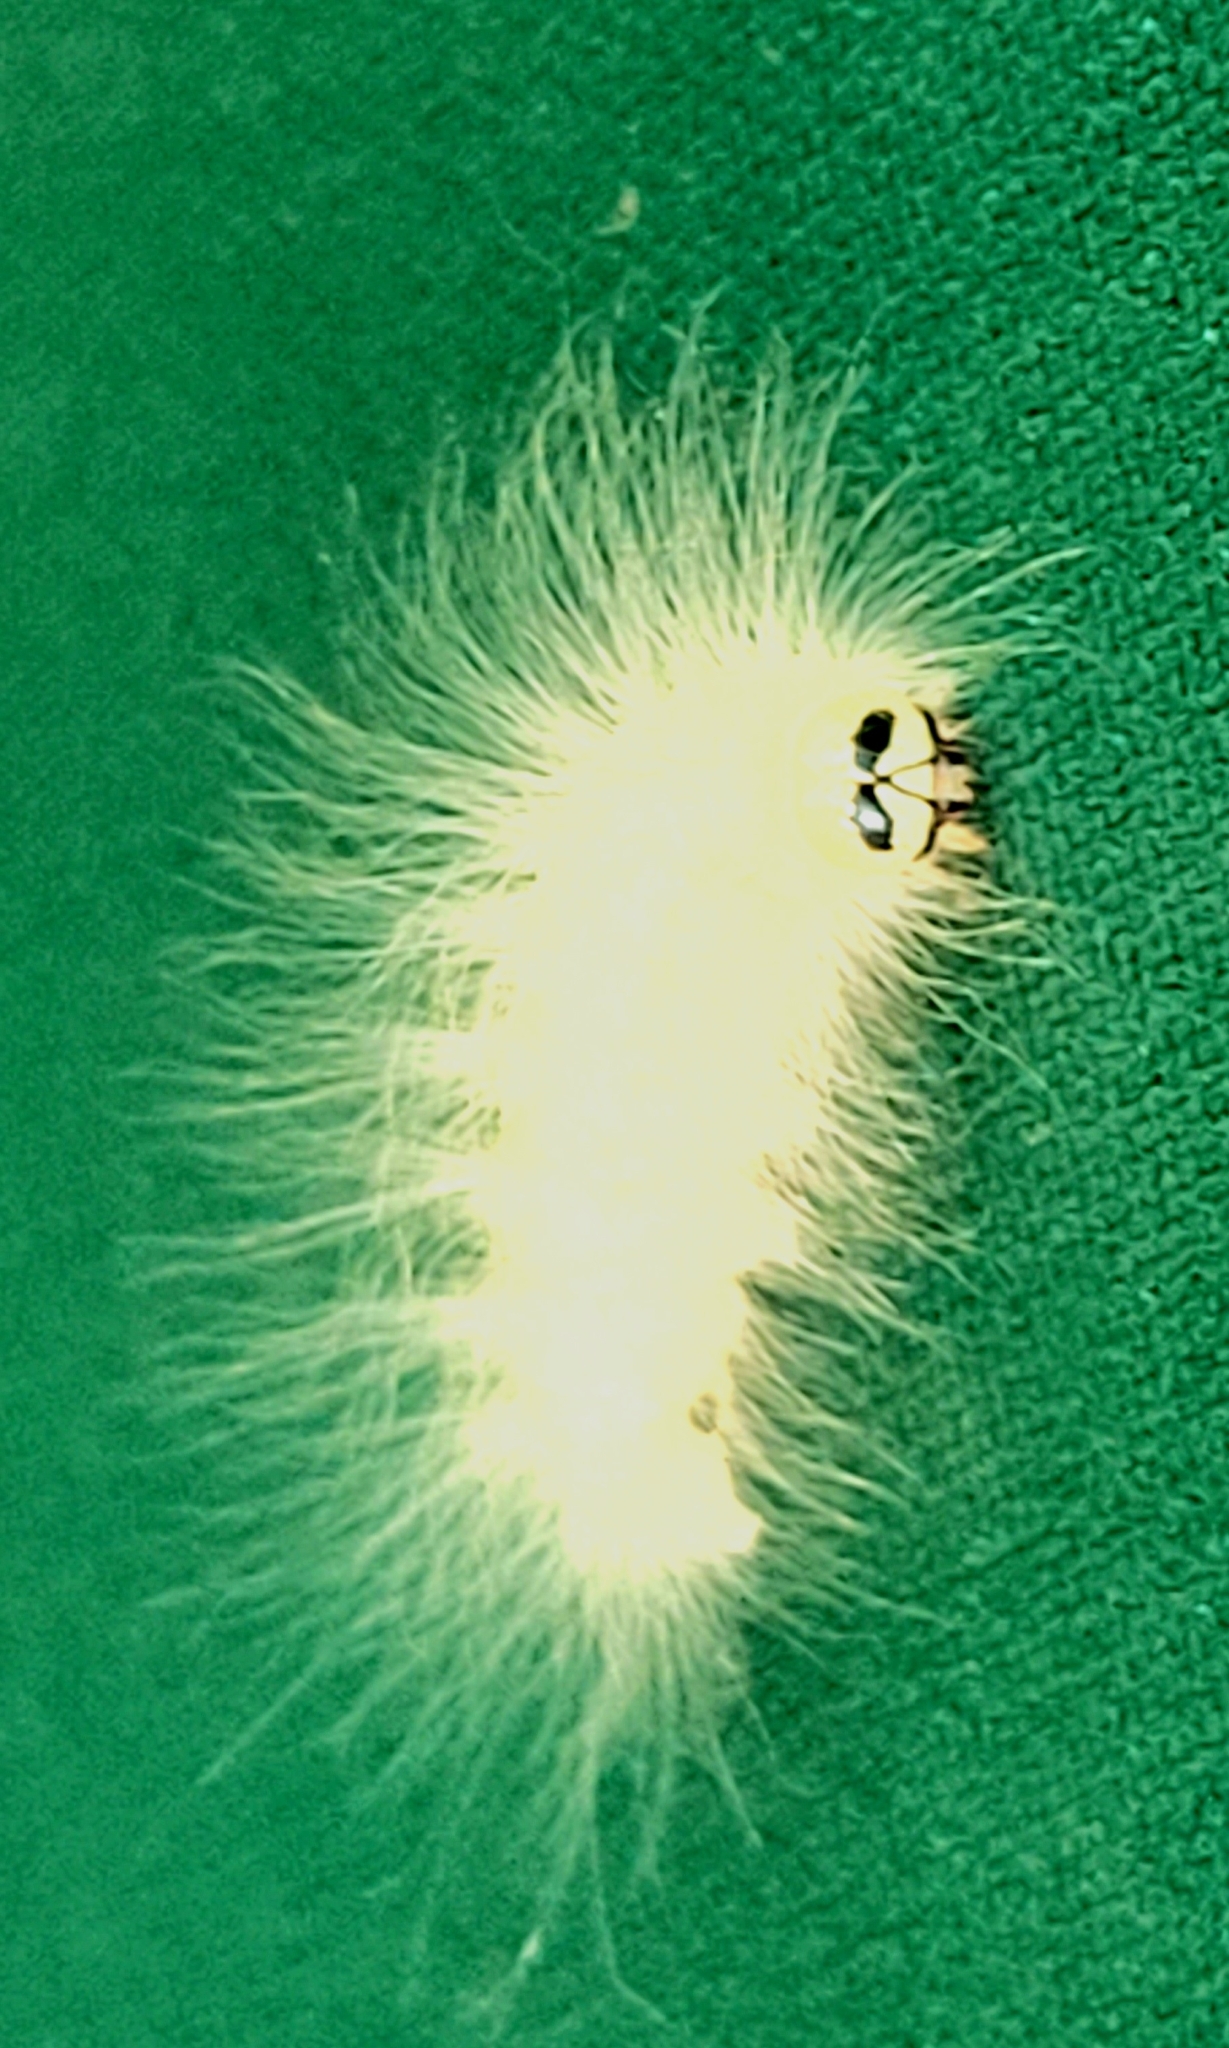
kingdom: Animalia
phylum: Arthropoda
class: Insecta
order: Lepidoptera
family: Noctuidae
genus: Charadra
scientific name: Charadra deridens
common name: Marbled tuffet
